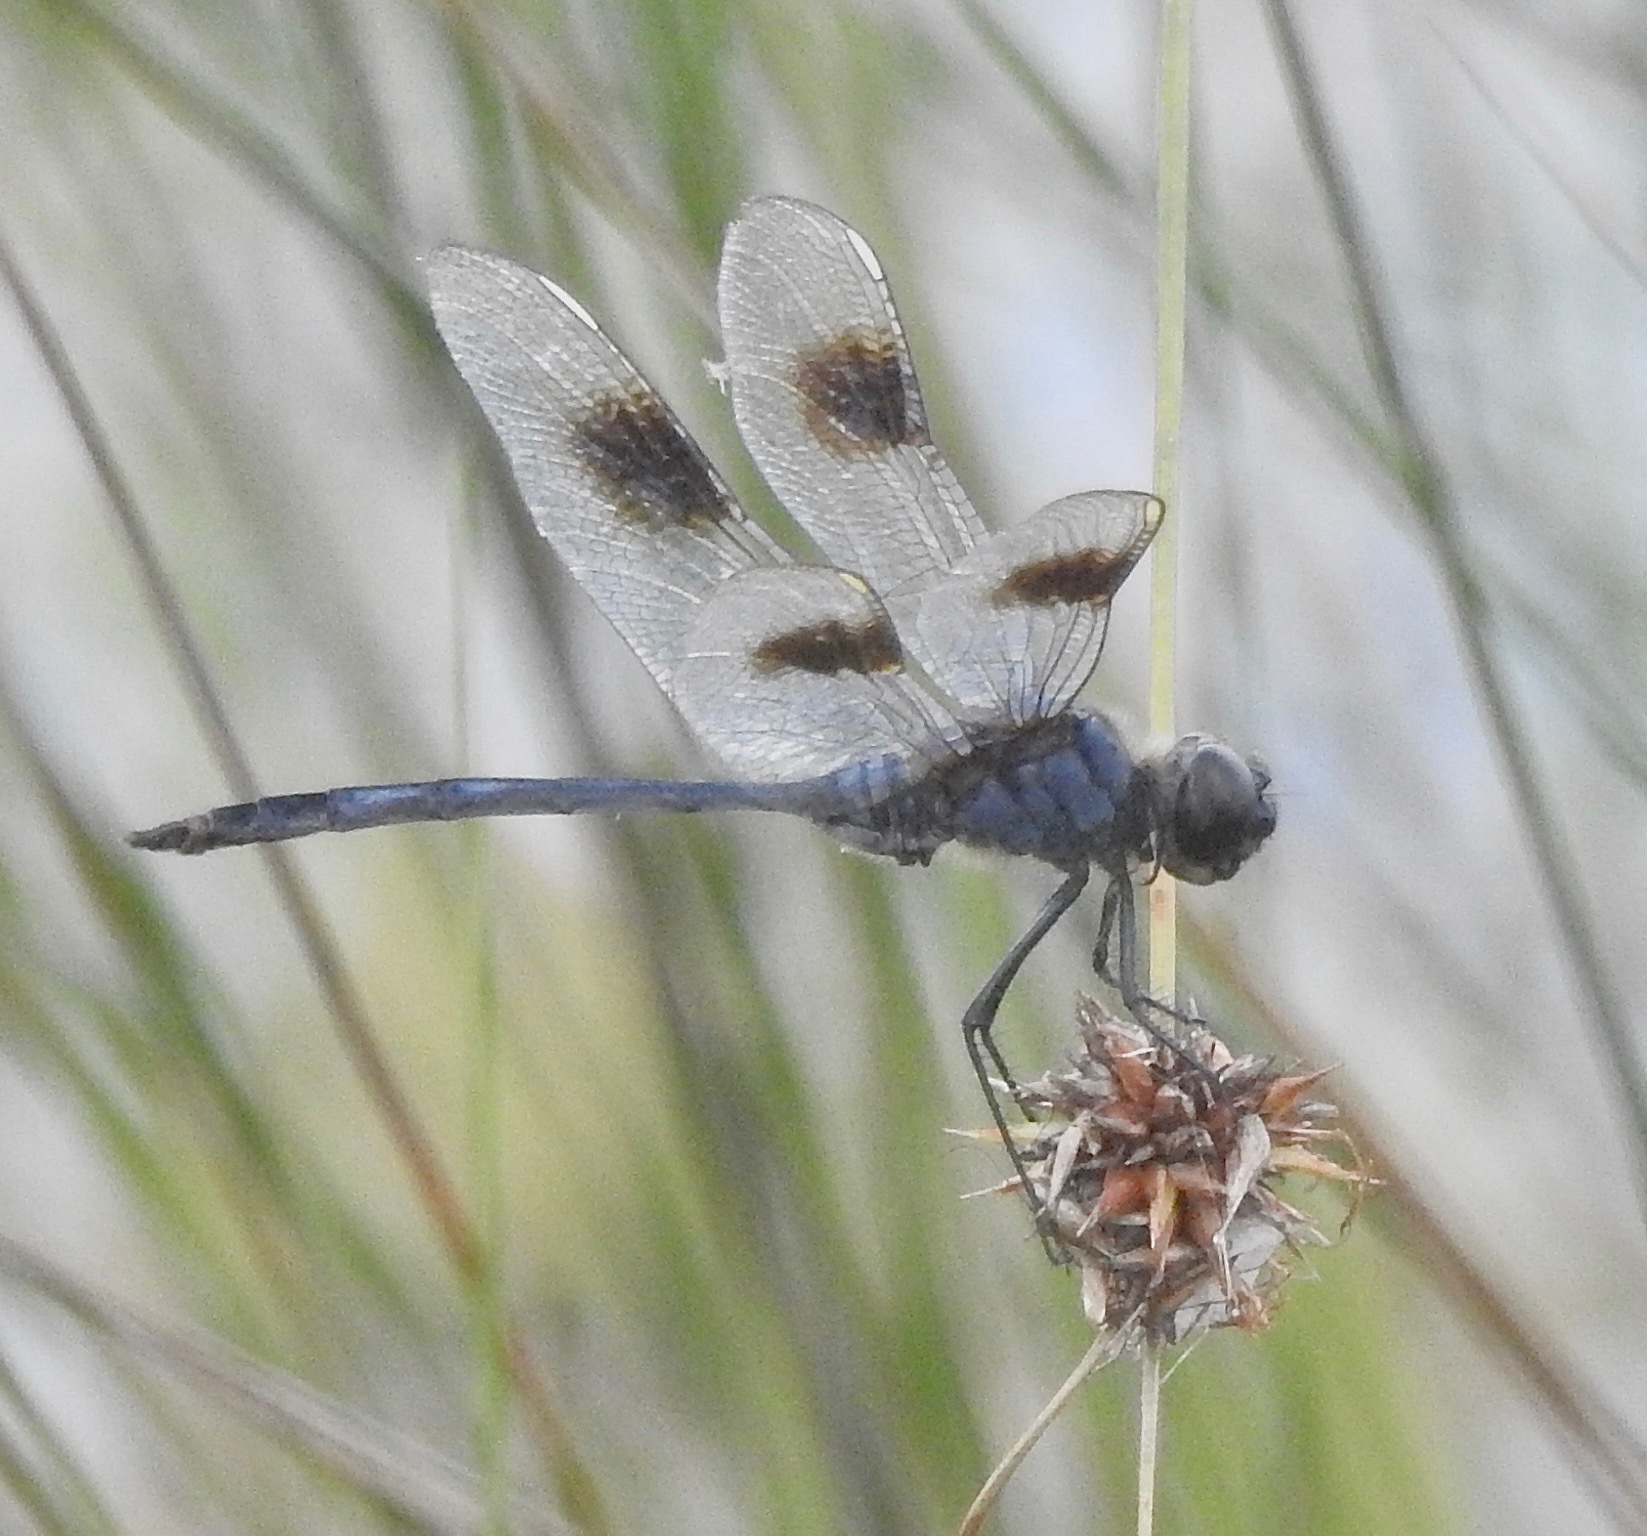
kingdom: Animalia
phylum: Arthropoda
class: Insecta
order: Odonata
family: Libellulidae
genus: Brachymesia
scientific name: Brachymesia gravida
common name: Four-spotted pennant
